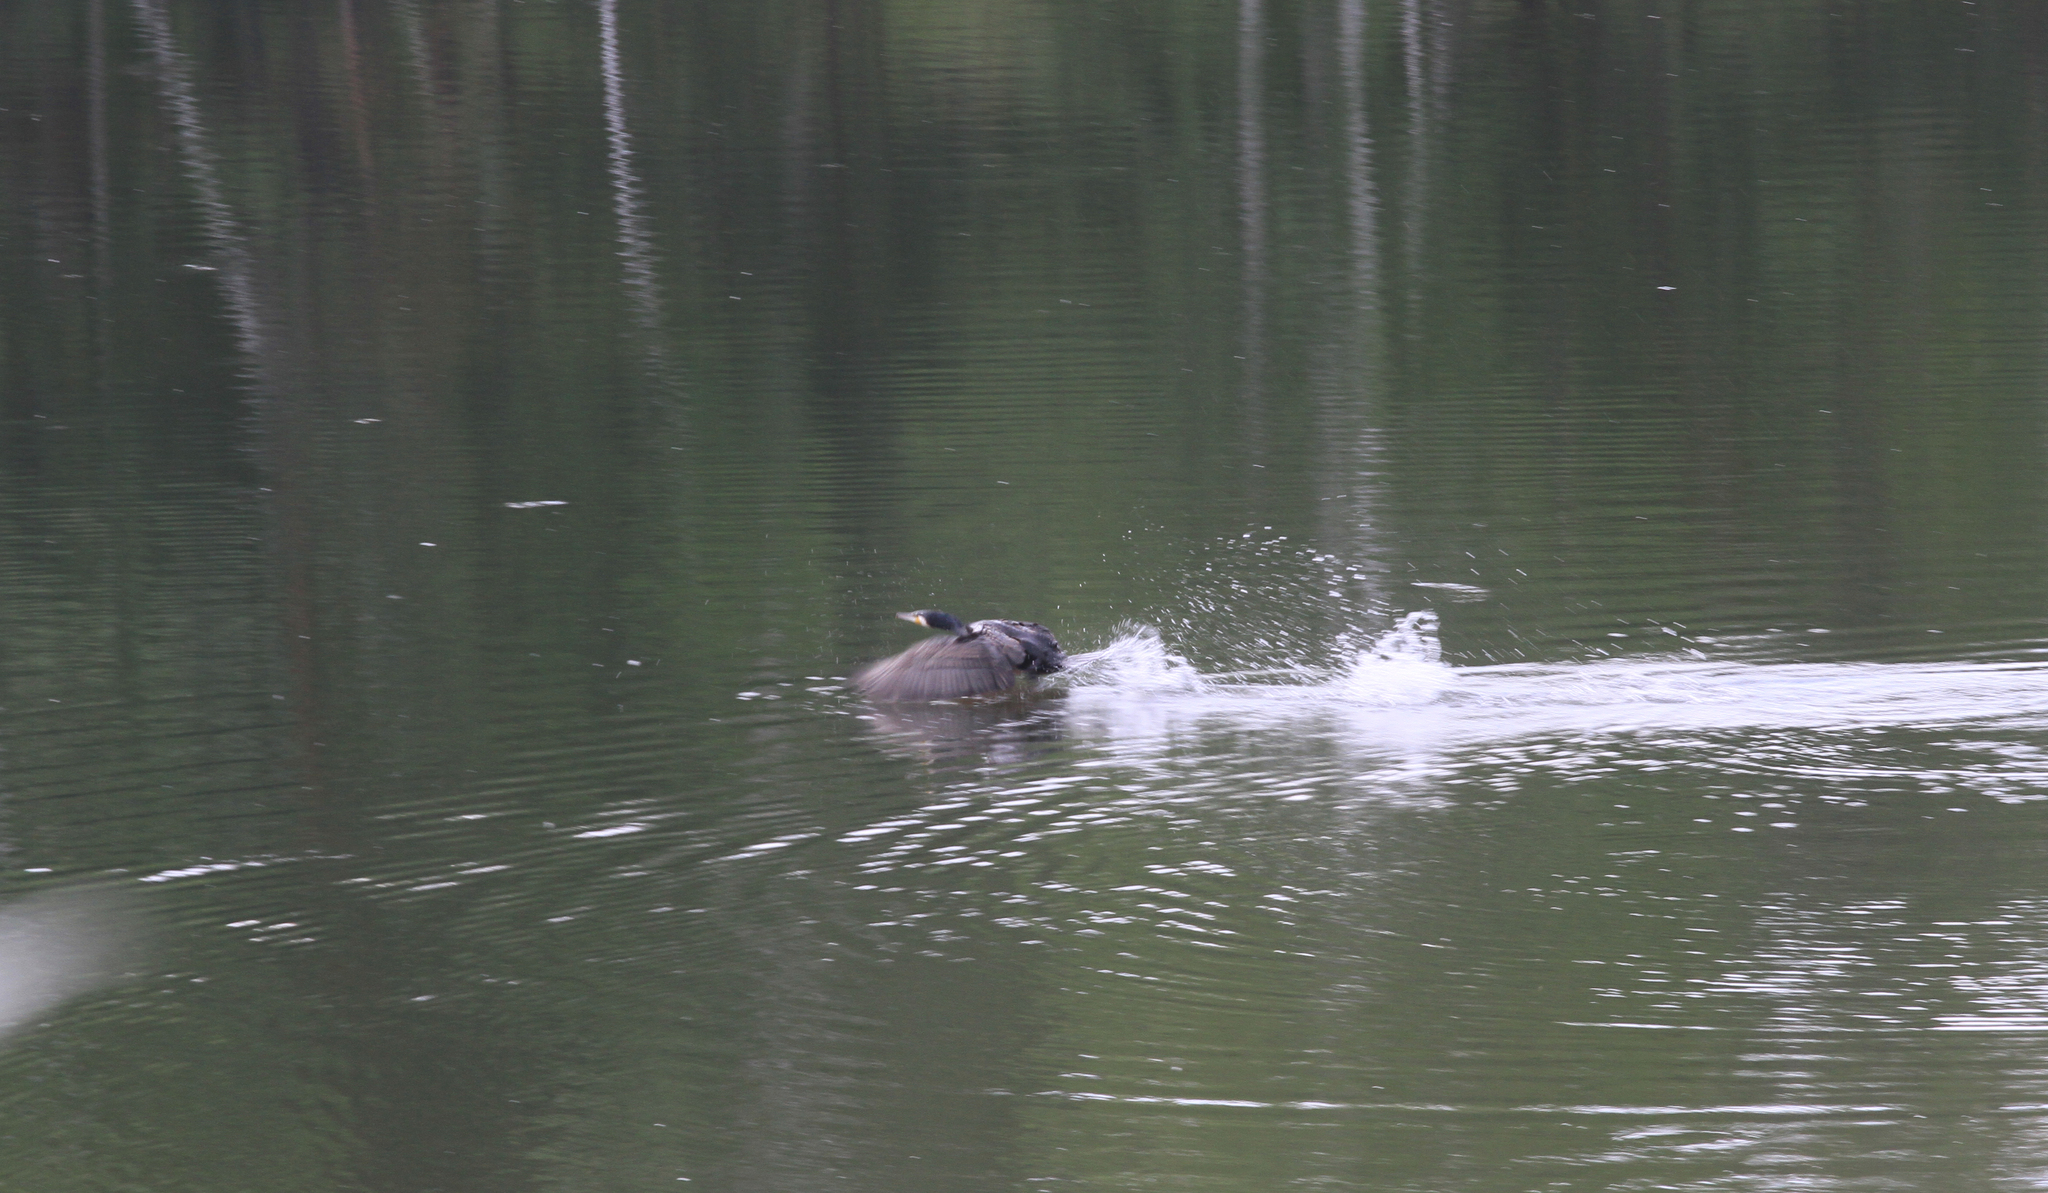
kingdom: Animalia
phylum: Chordata
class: Aves
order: Suliformes
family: Phalacrocoracidae
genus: Phalacrocorax
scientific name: Phalacrocorax carbo
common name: Great cormorant
